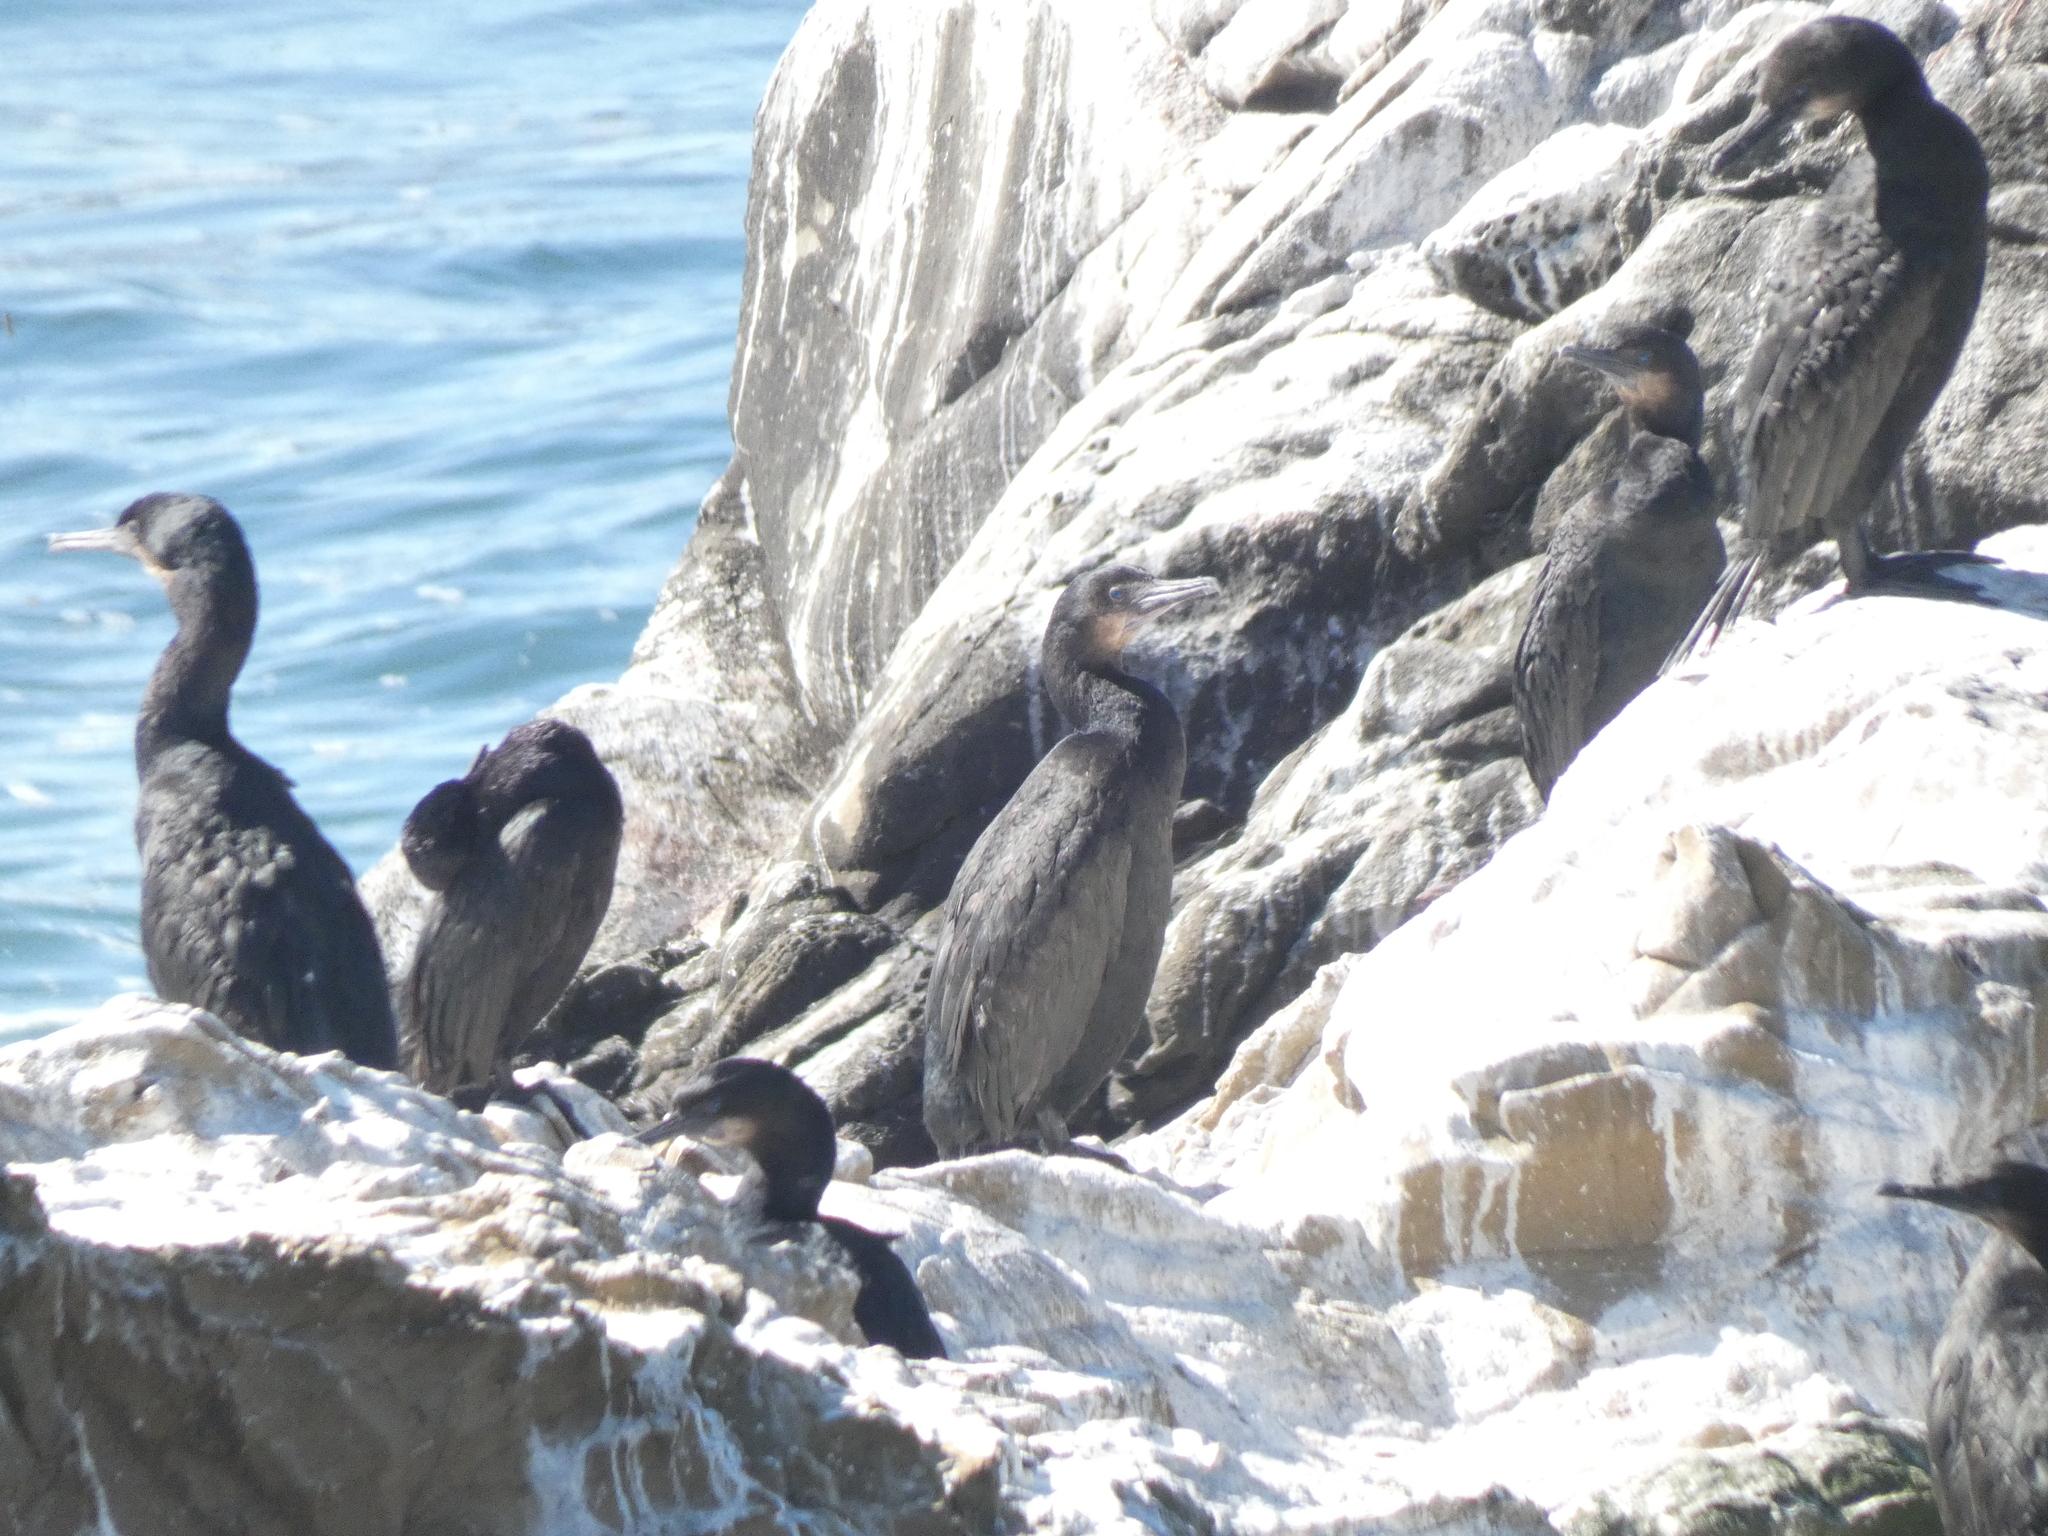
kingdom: Animalia
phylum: Chordata
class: Aves
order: Suliformes
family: Phalacrocoracidae
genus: Urile
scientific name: Urile penicillatus
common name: Brandt's cormorant
